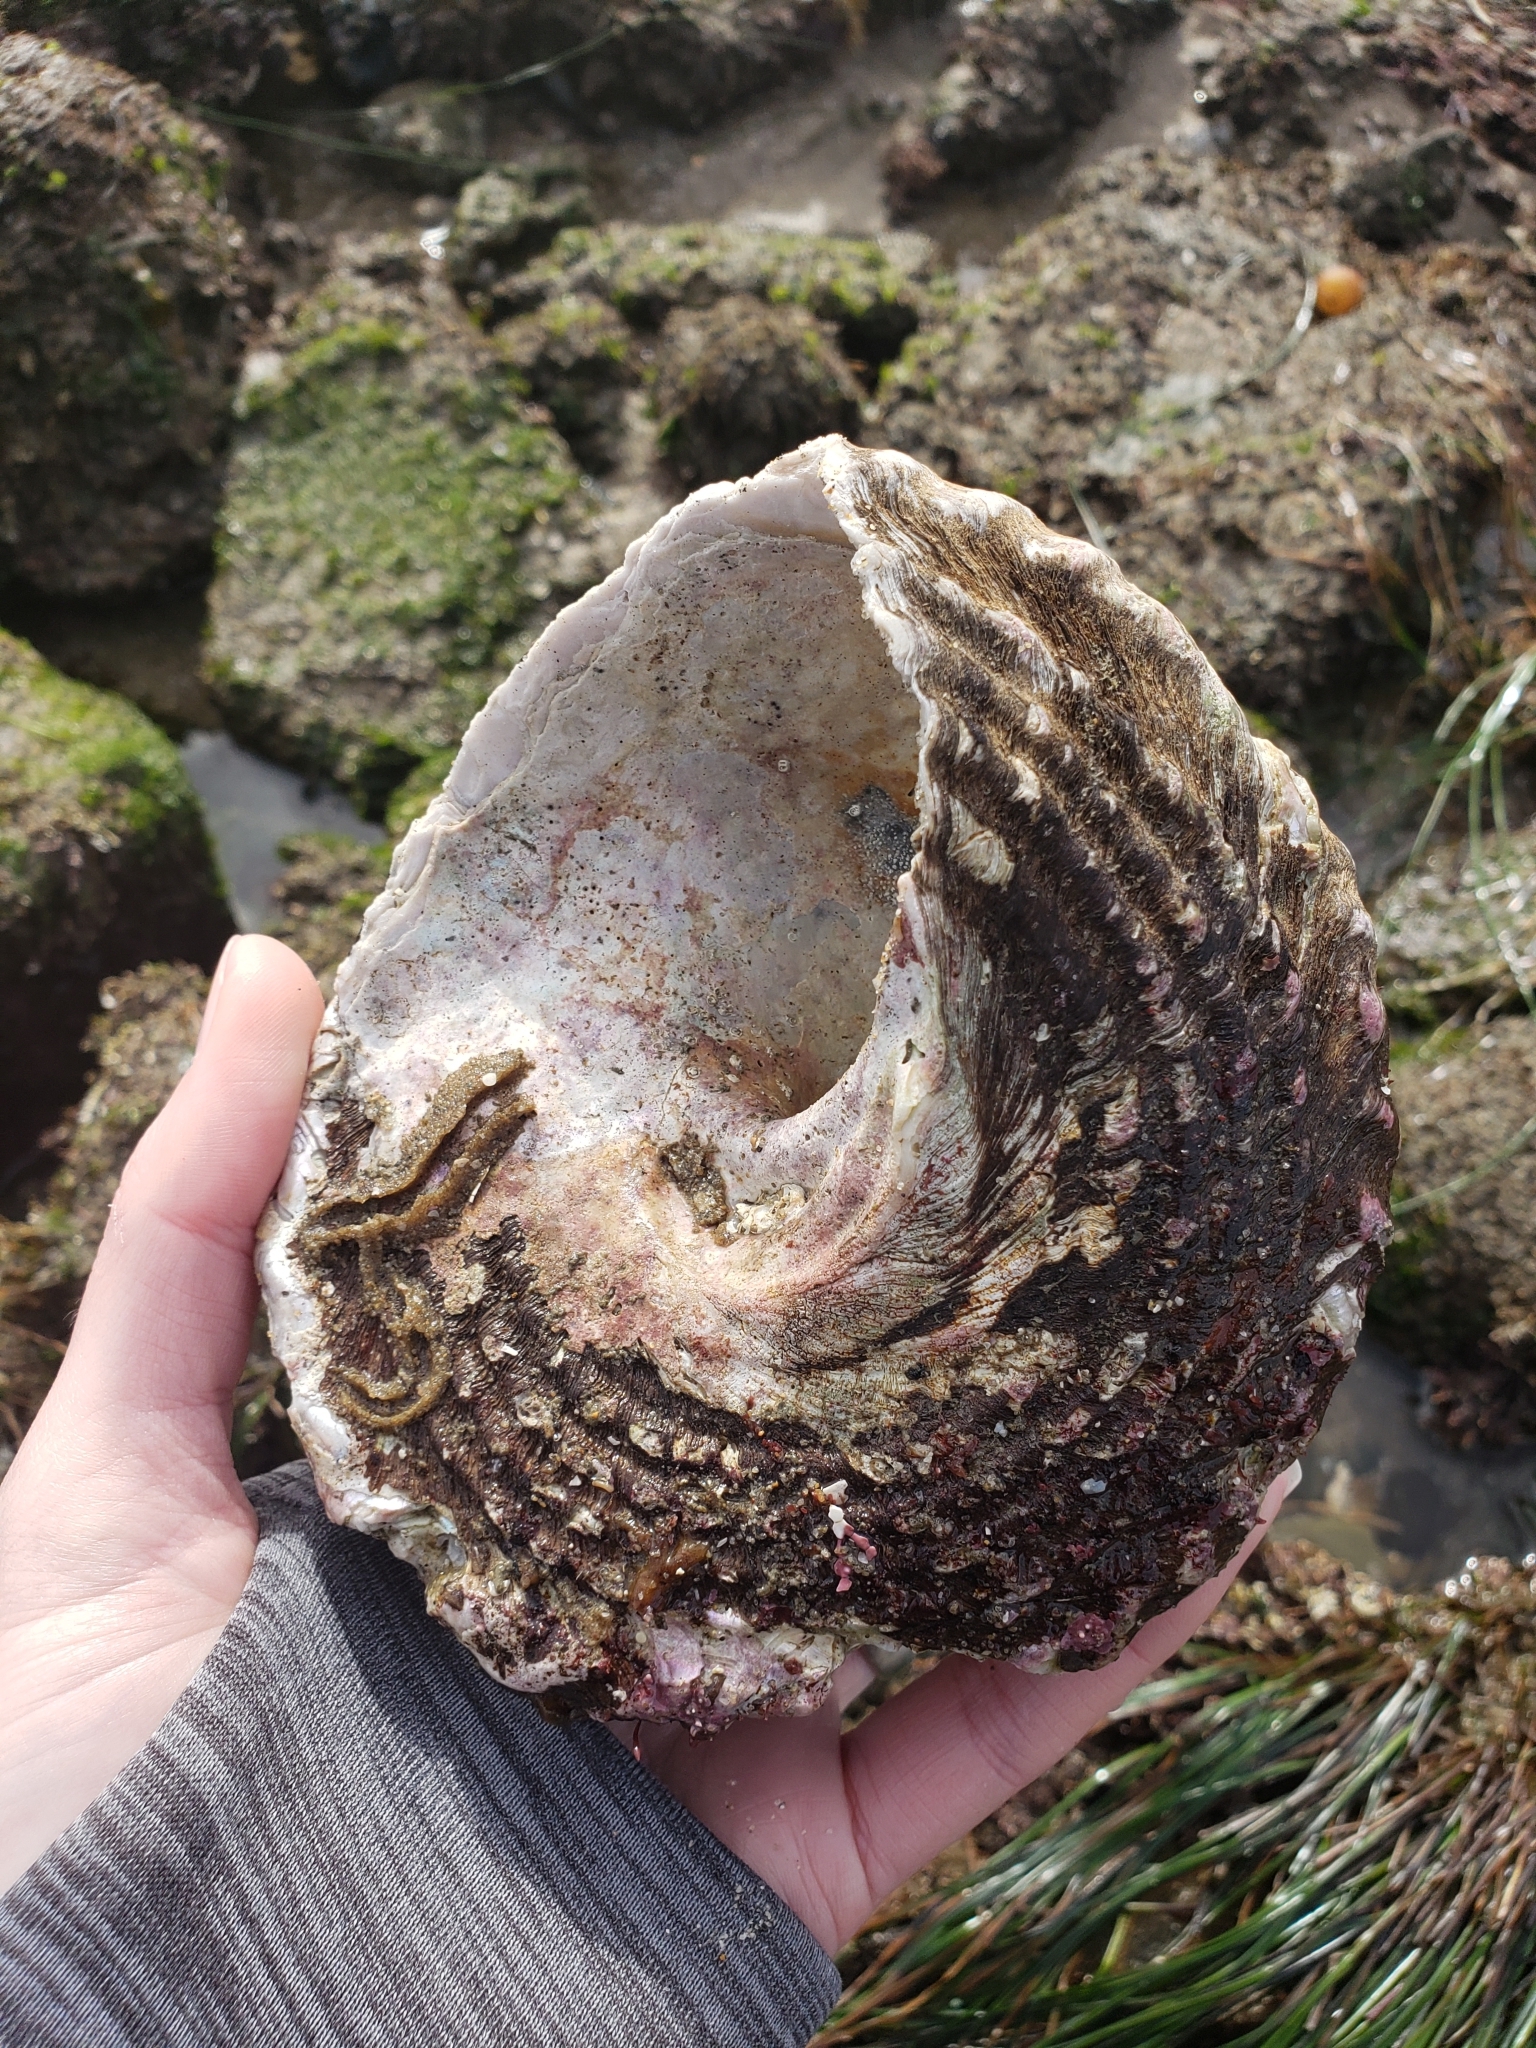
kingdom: Animalia
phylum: Mollusca
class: Gastropoda
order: Trochida
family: Turbinidae
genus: Megastraea
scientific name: Megastraea undosa
